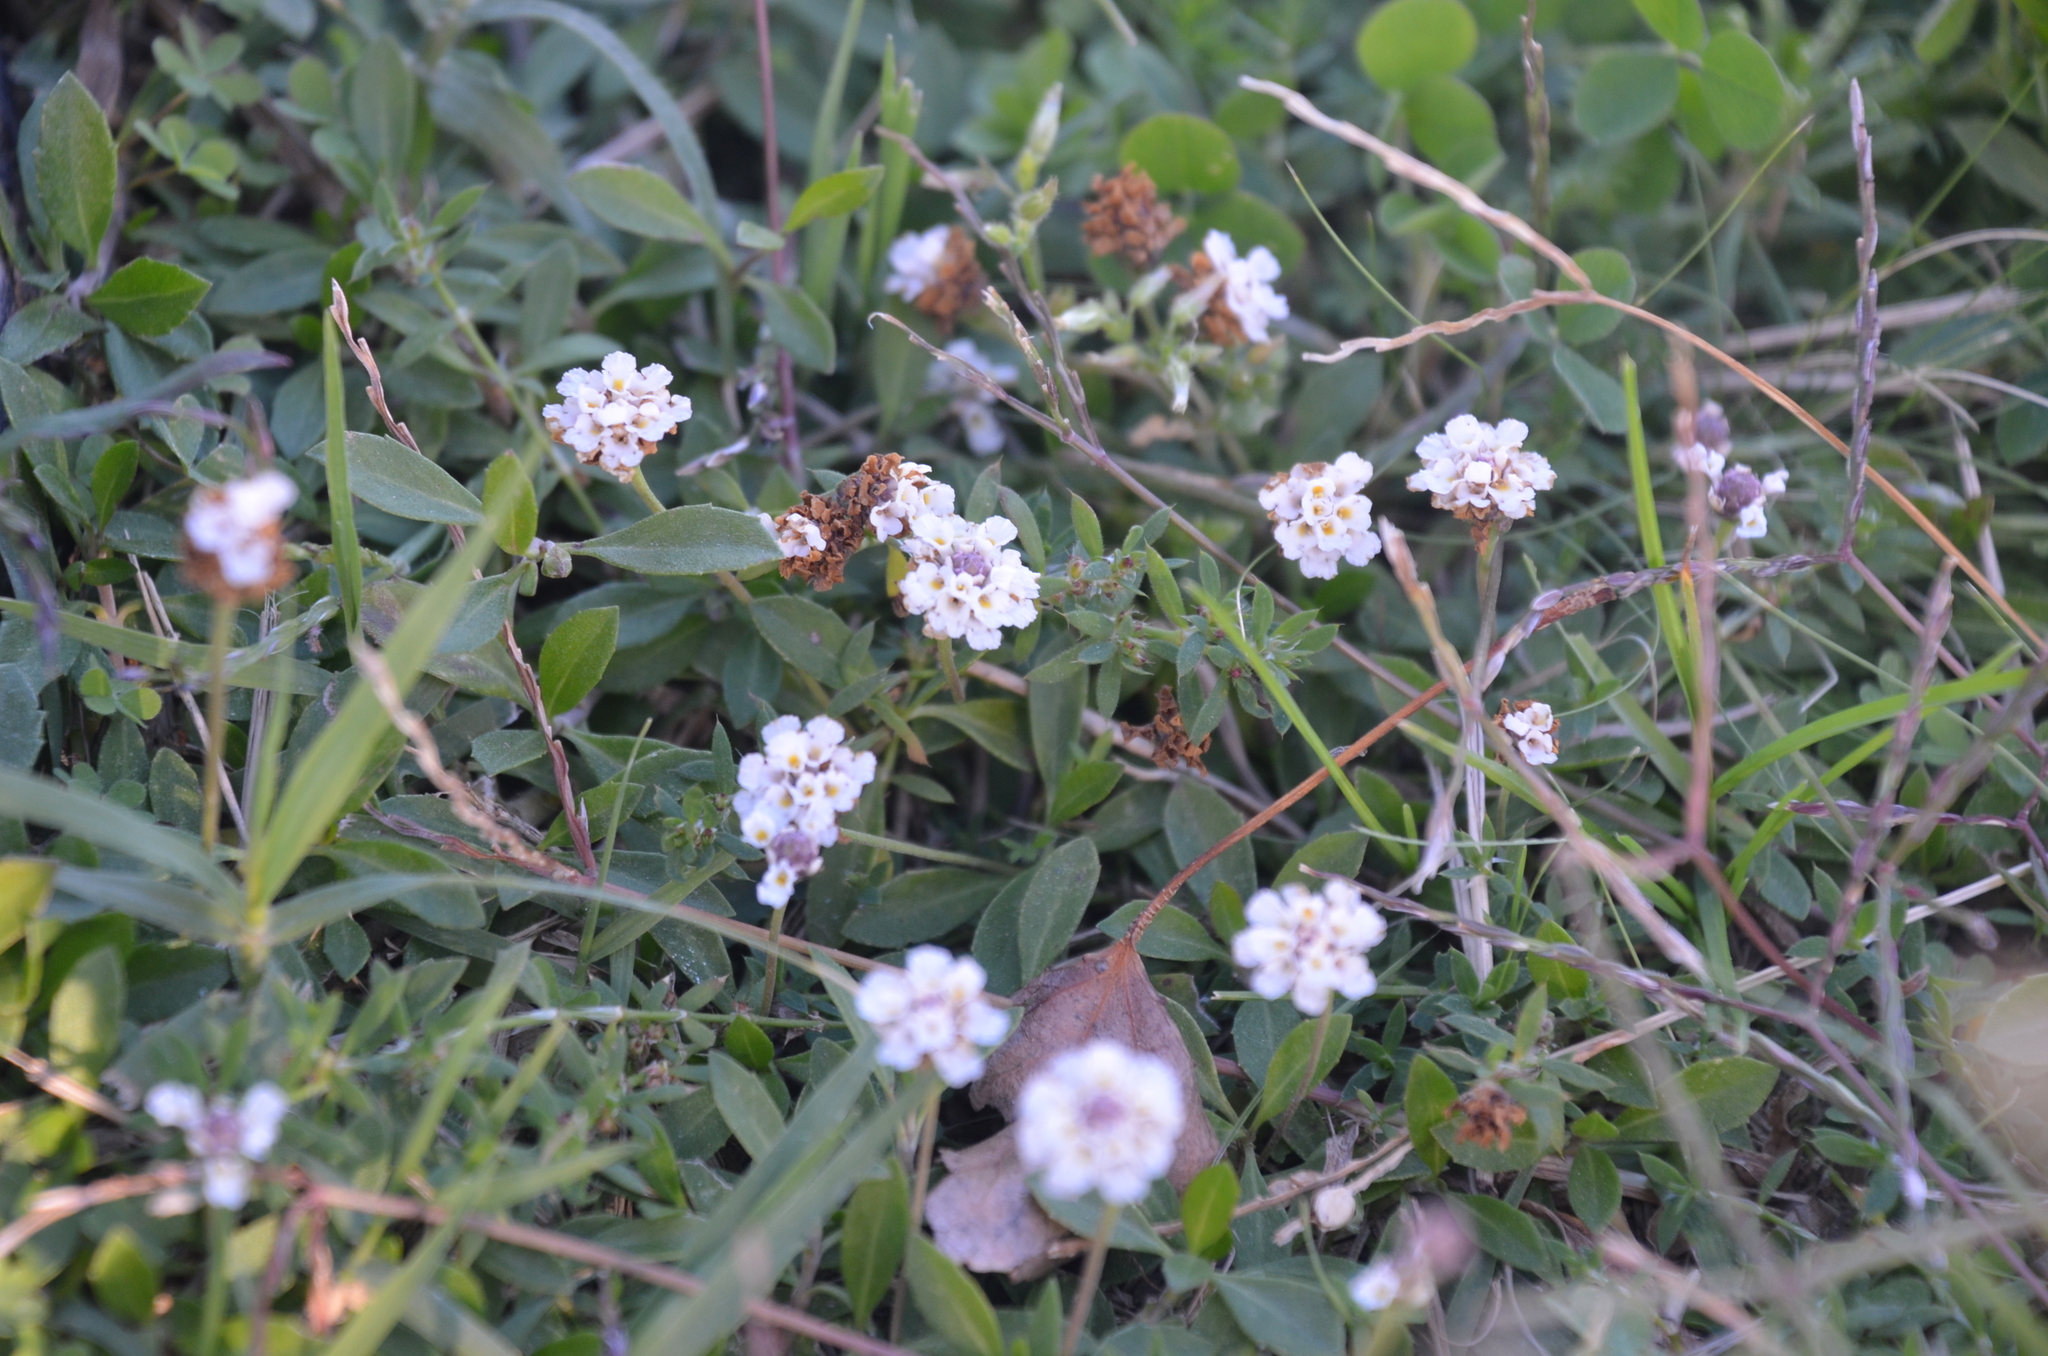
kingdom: Plantae
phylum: Tracheophyta
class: Magnoliopsida
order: Lamiales
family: Verbenaceae
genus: Phyla
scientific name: Phyla nodiflora
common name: Frogfruit
